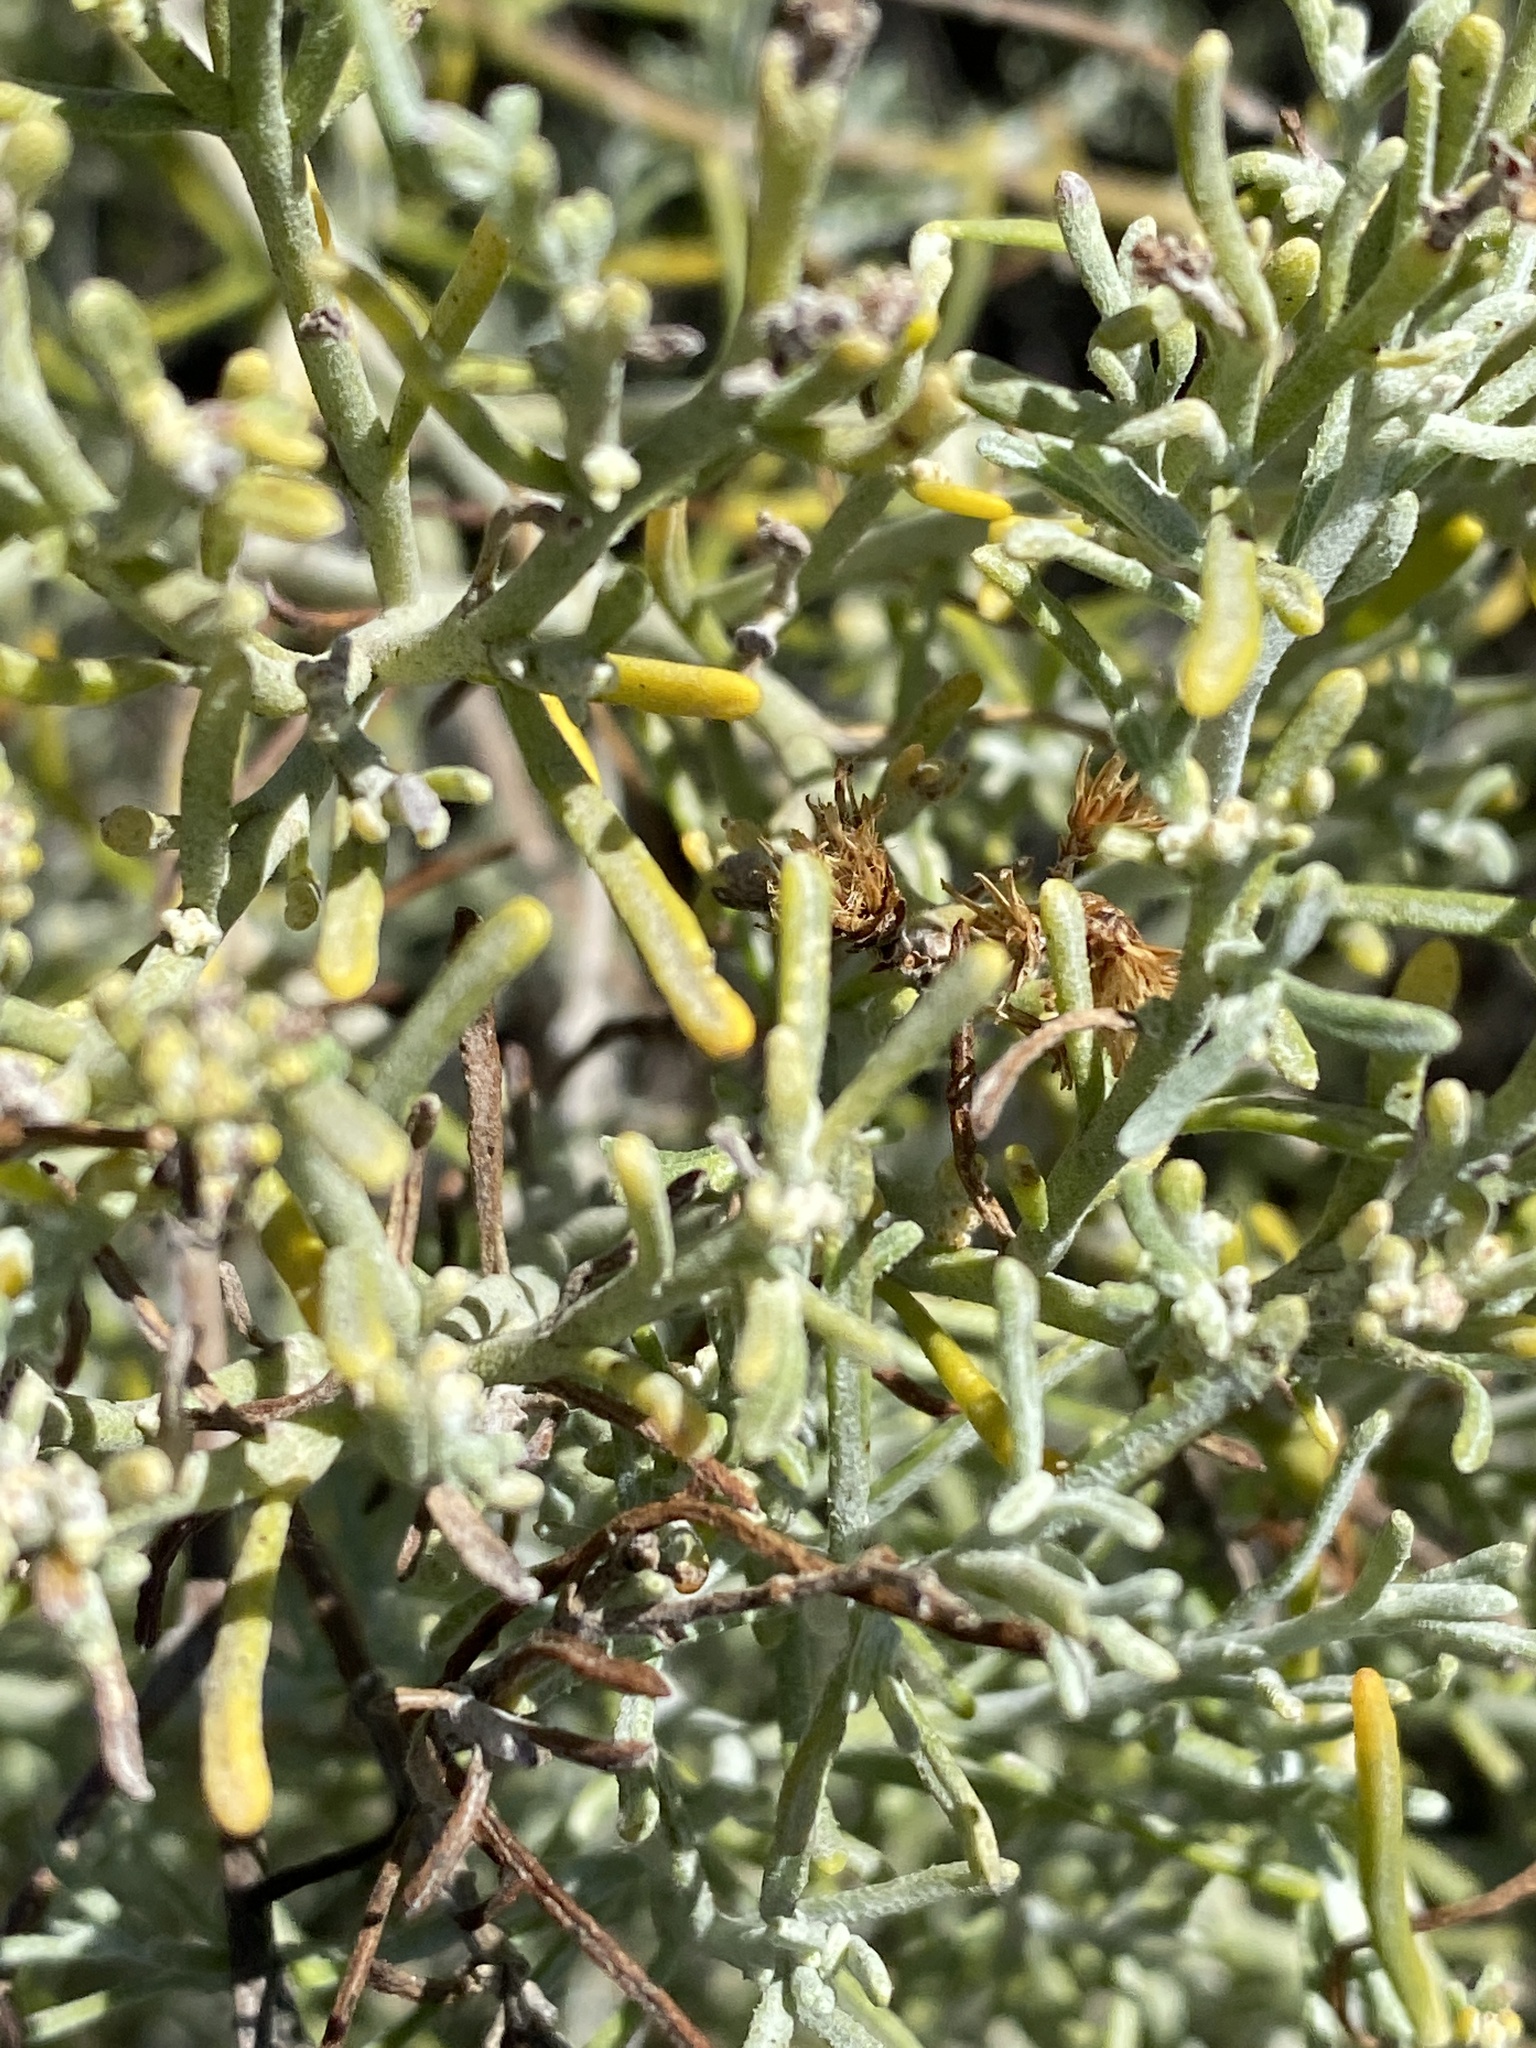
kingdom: Plantae
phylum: Tracheophyta
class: Magnoliopsida
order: Asterales
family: Asteraceae
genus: Schizogyne
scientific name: Schizogyne sericea
